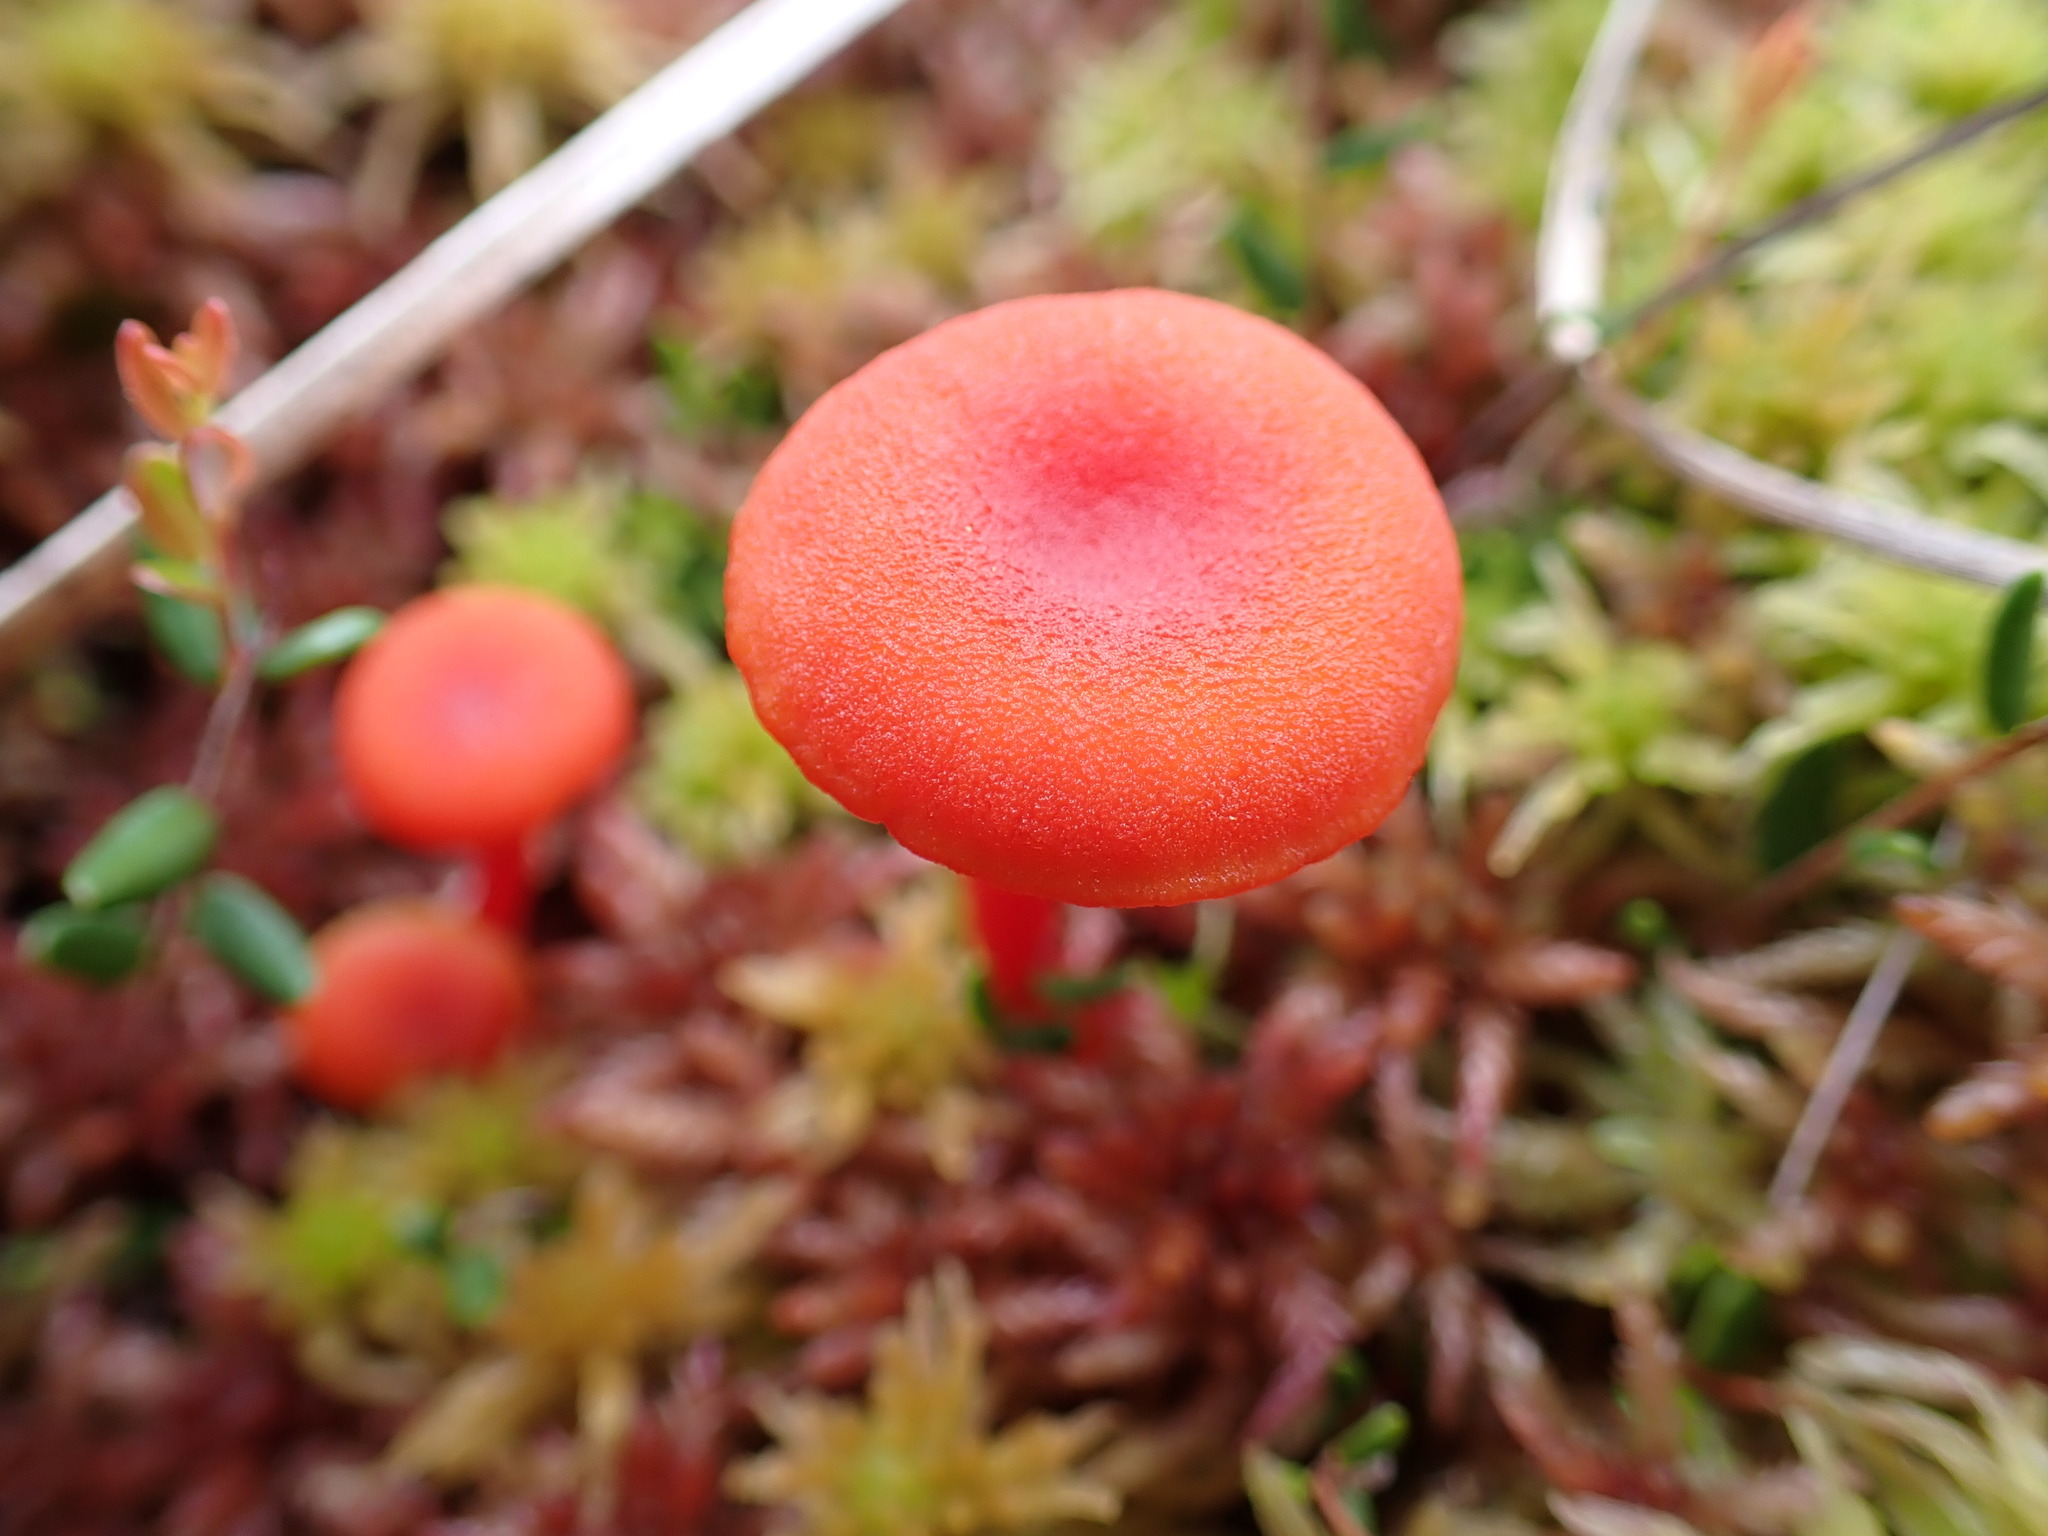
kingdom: Fungi
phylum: Basidiomycota
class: Agaricomycetes
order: Agaricales
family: Hygrophoraceae
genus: Hygrocybe
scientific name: Hygrocybe miniata
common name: Vermilion waxcap
